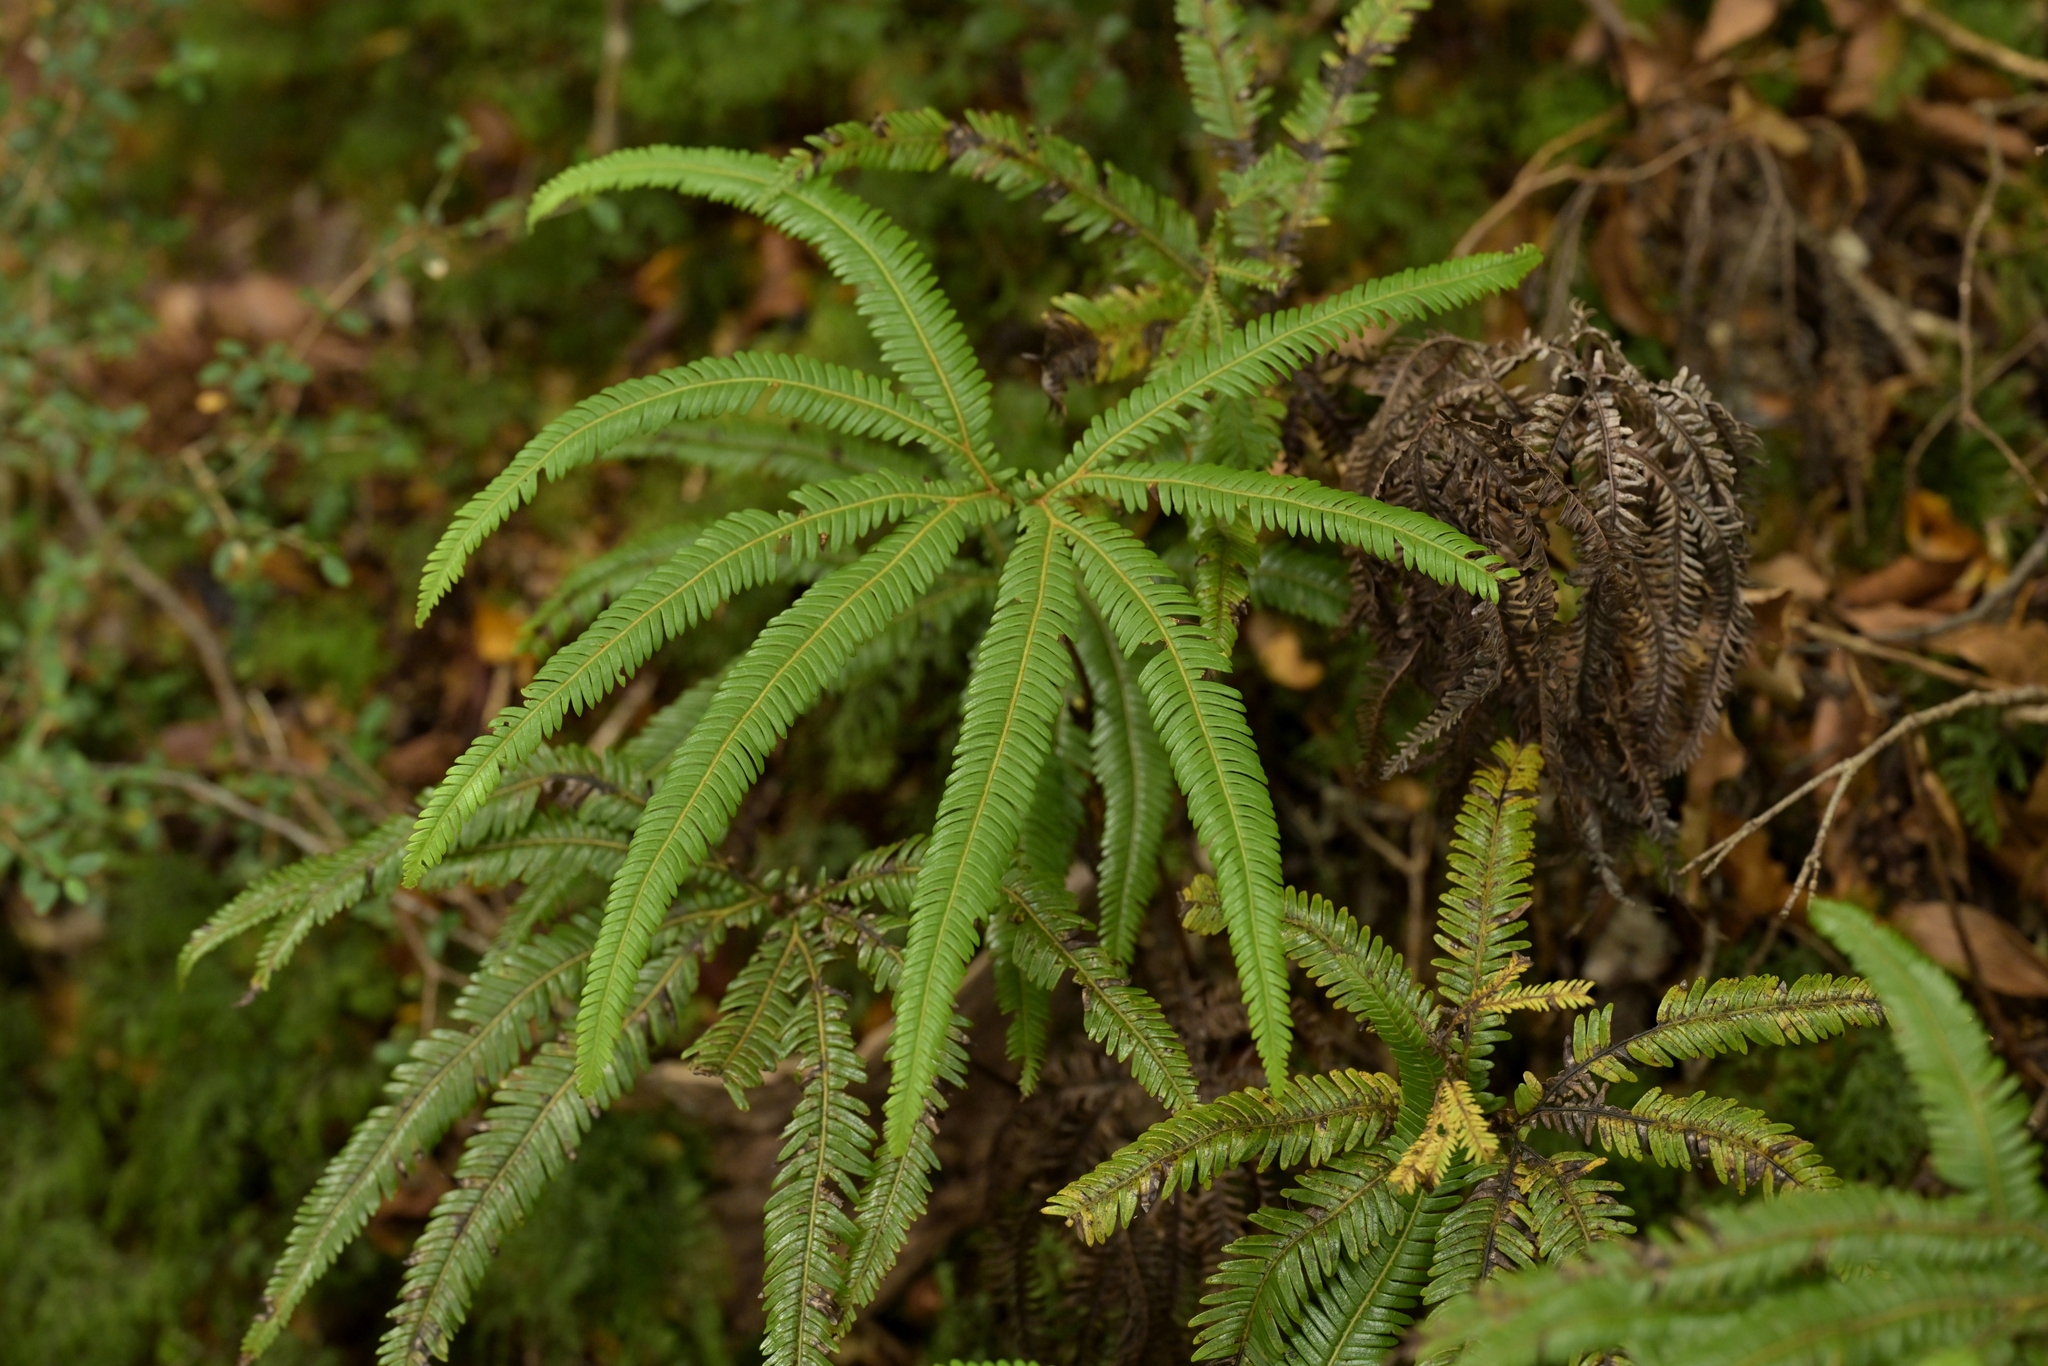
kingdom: Plantae
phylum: Tracheophyta
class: Polypodiopsida
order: Gleicheniales
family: Gleicheniaceae
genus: Sticherus
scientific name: Sticherus cunninghamii
